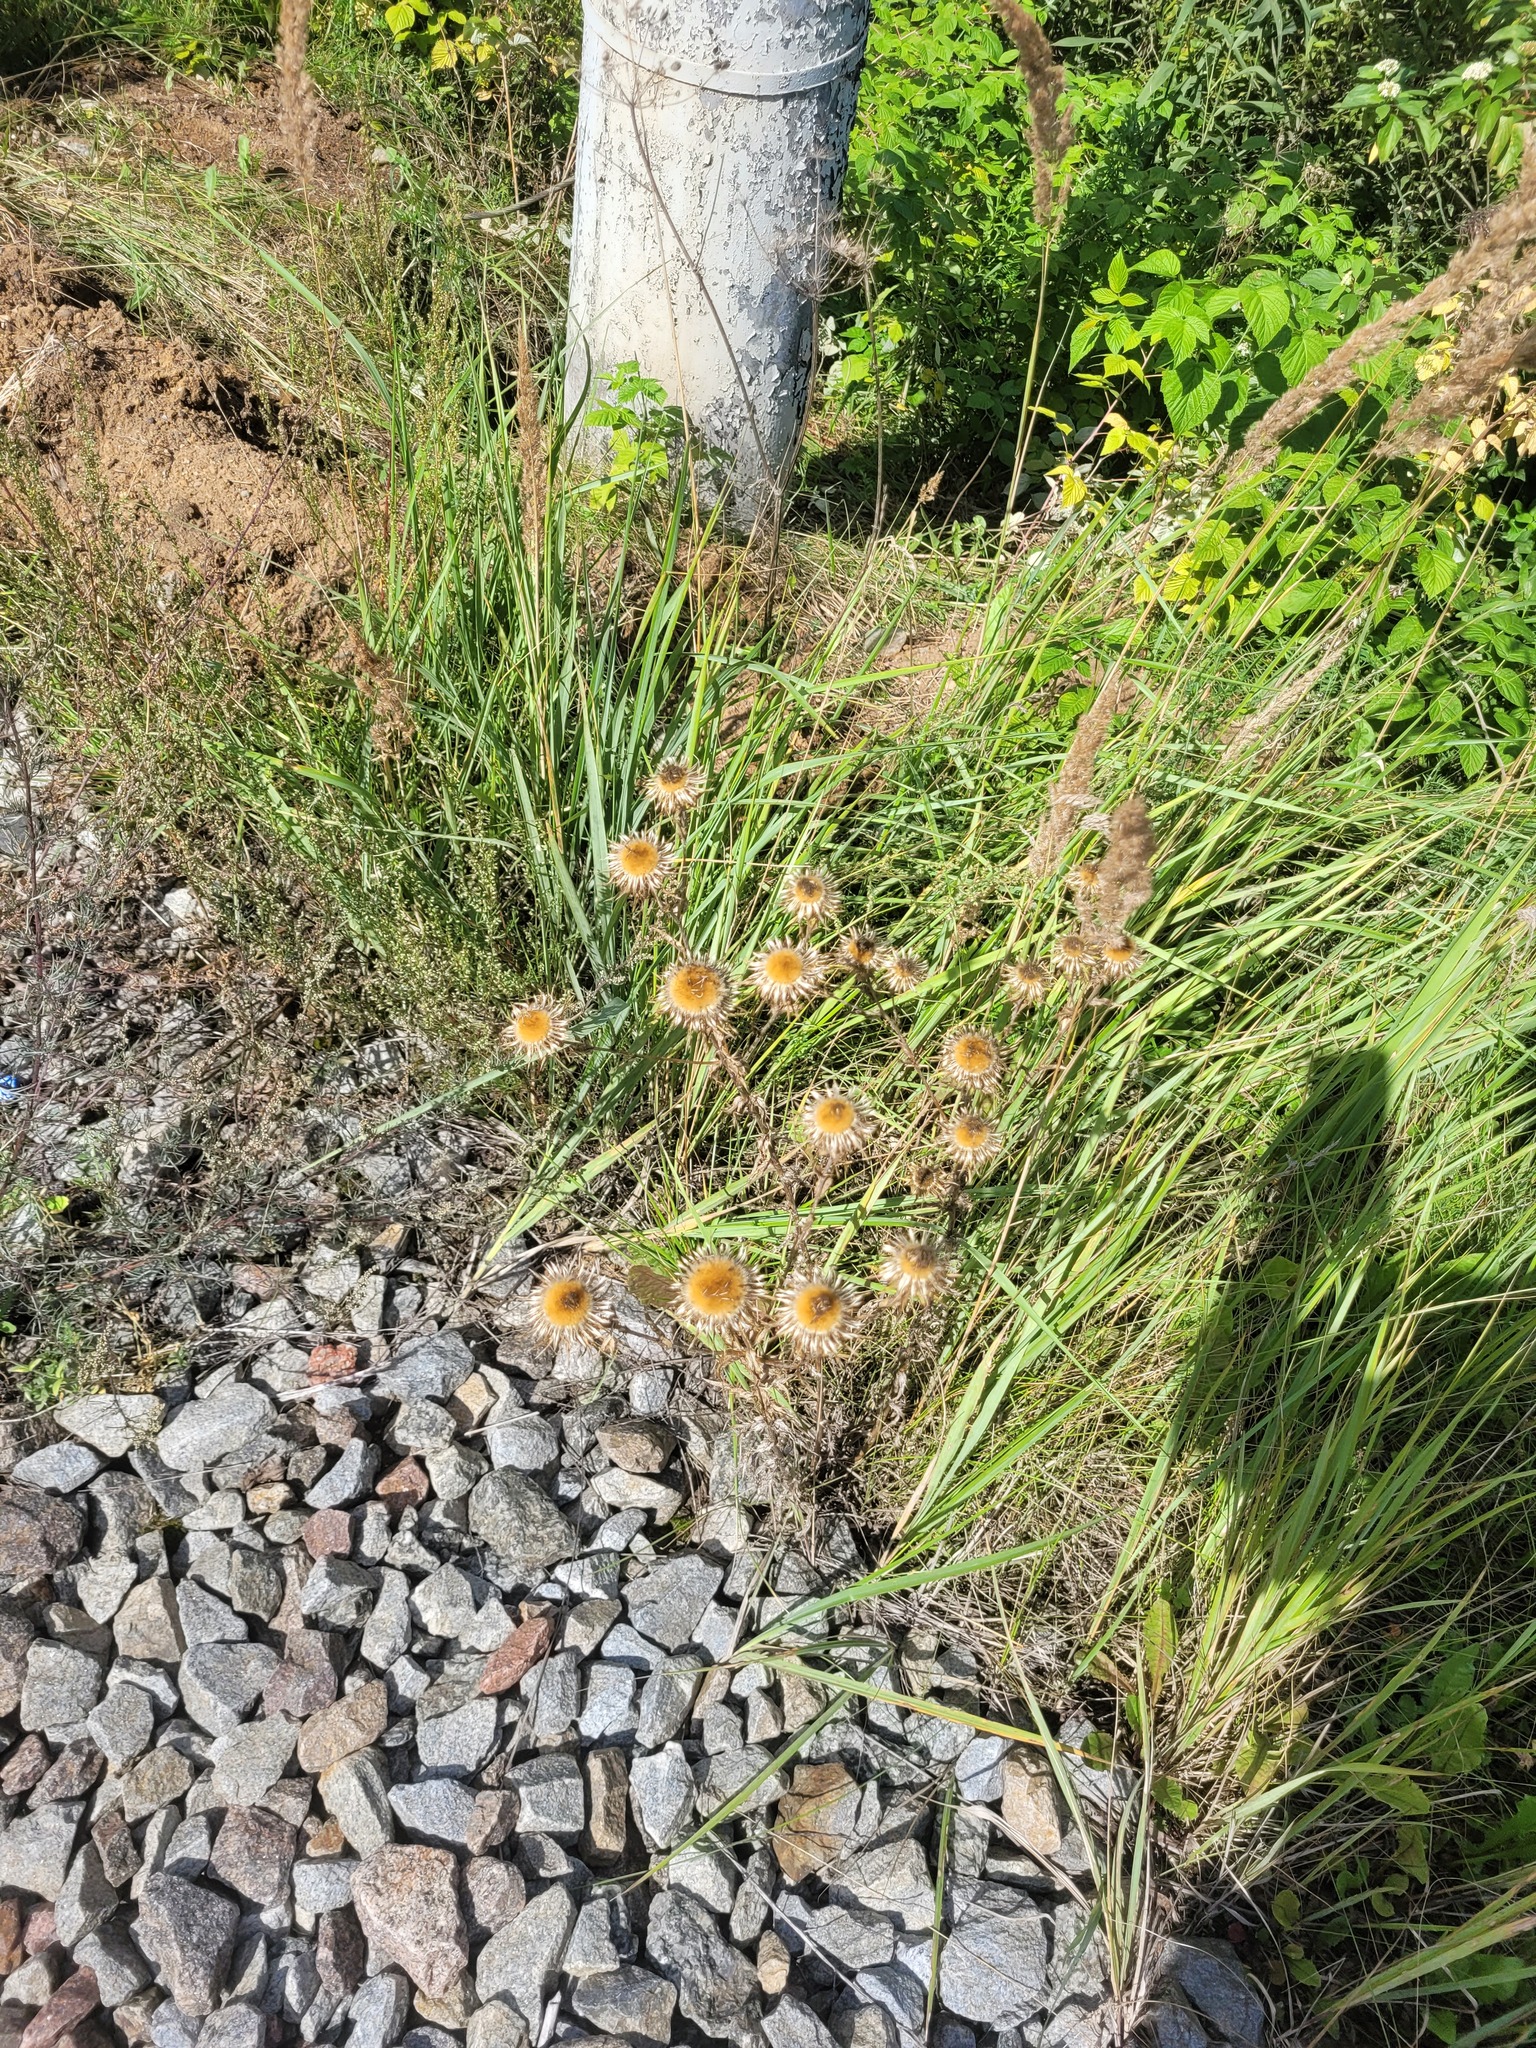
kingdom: Plantae
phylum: Tracheophyta
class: Magnoliopsida
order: Asterales
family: Asteraceae
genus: Carlina
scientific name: Carlina biebersteinii
